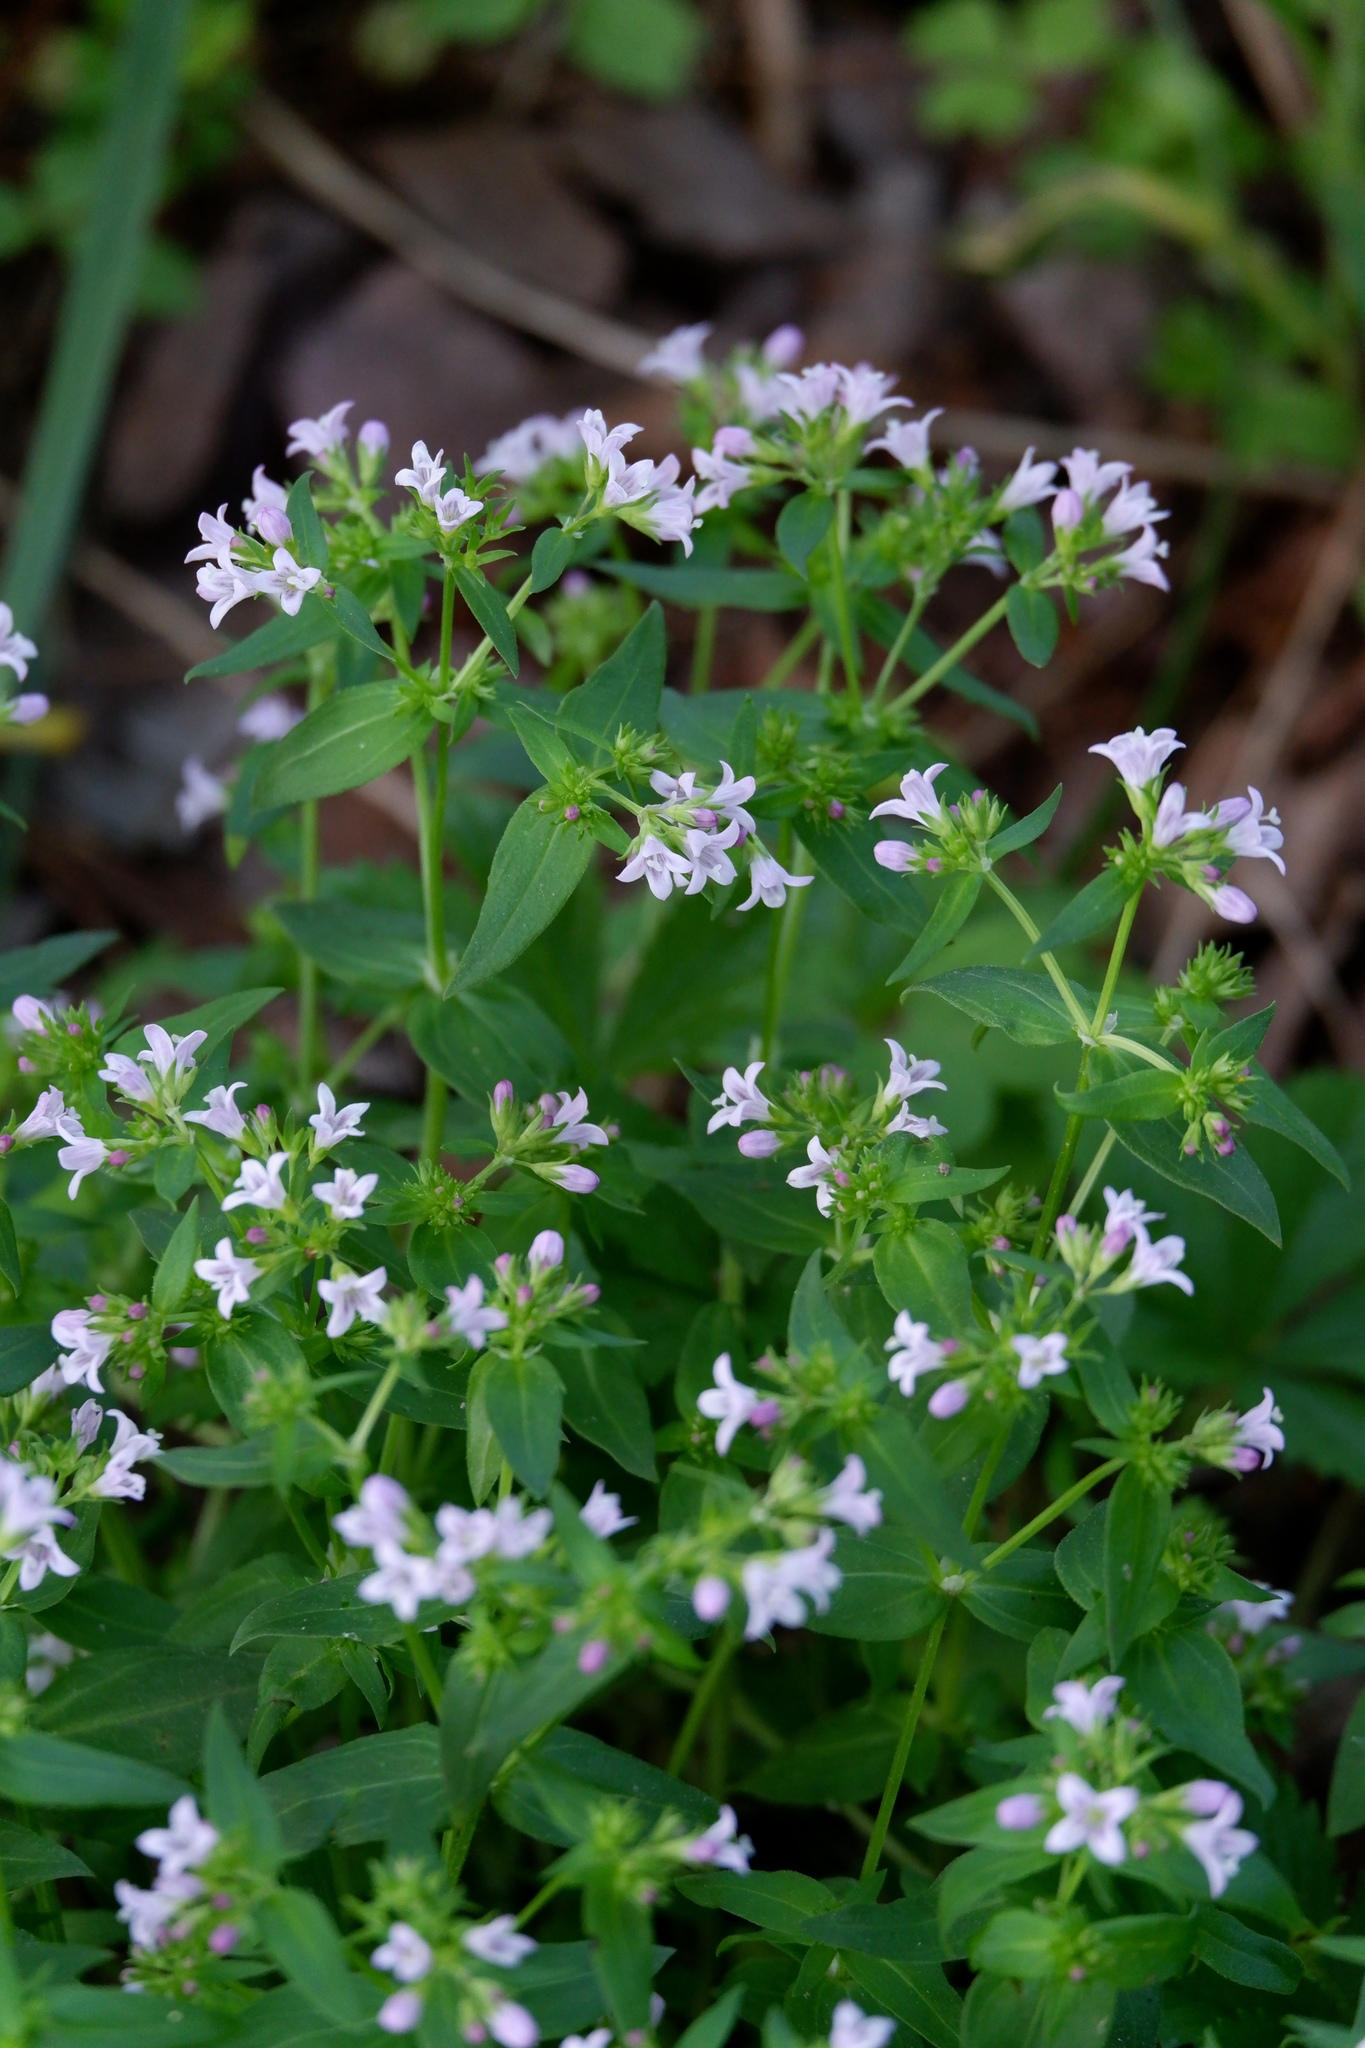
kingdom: Plantae
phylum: Tracheophyta
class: Magnoliopsida
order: Gentianales
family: Rubiaceae
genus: Houstonia
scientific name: Houstonia purpurea
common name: Summer bluet
